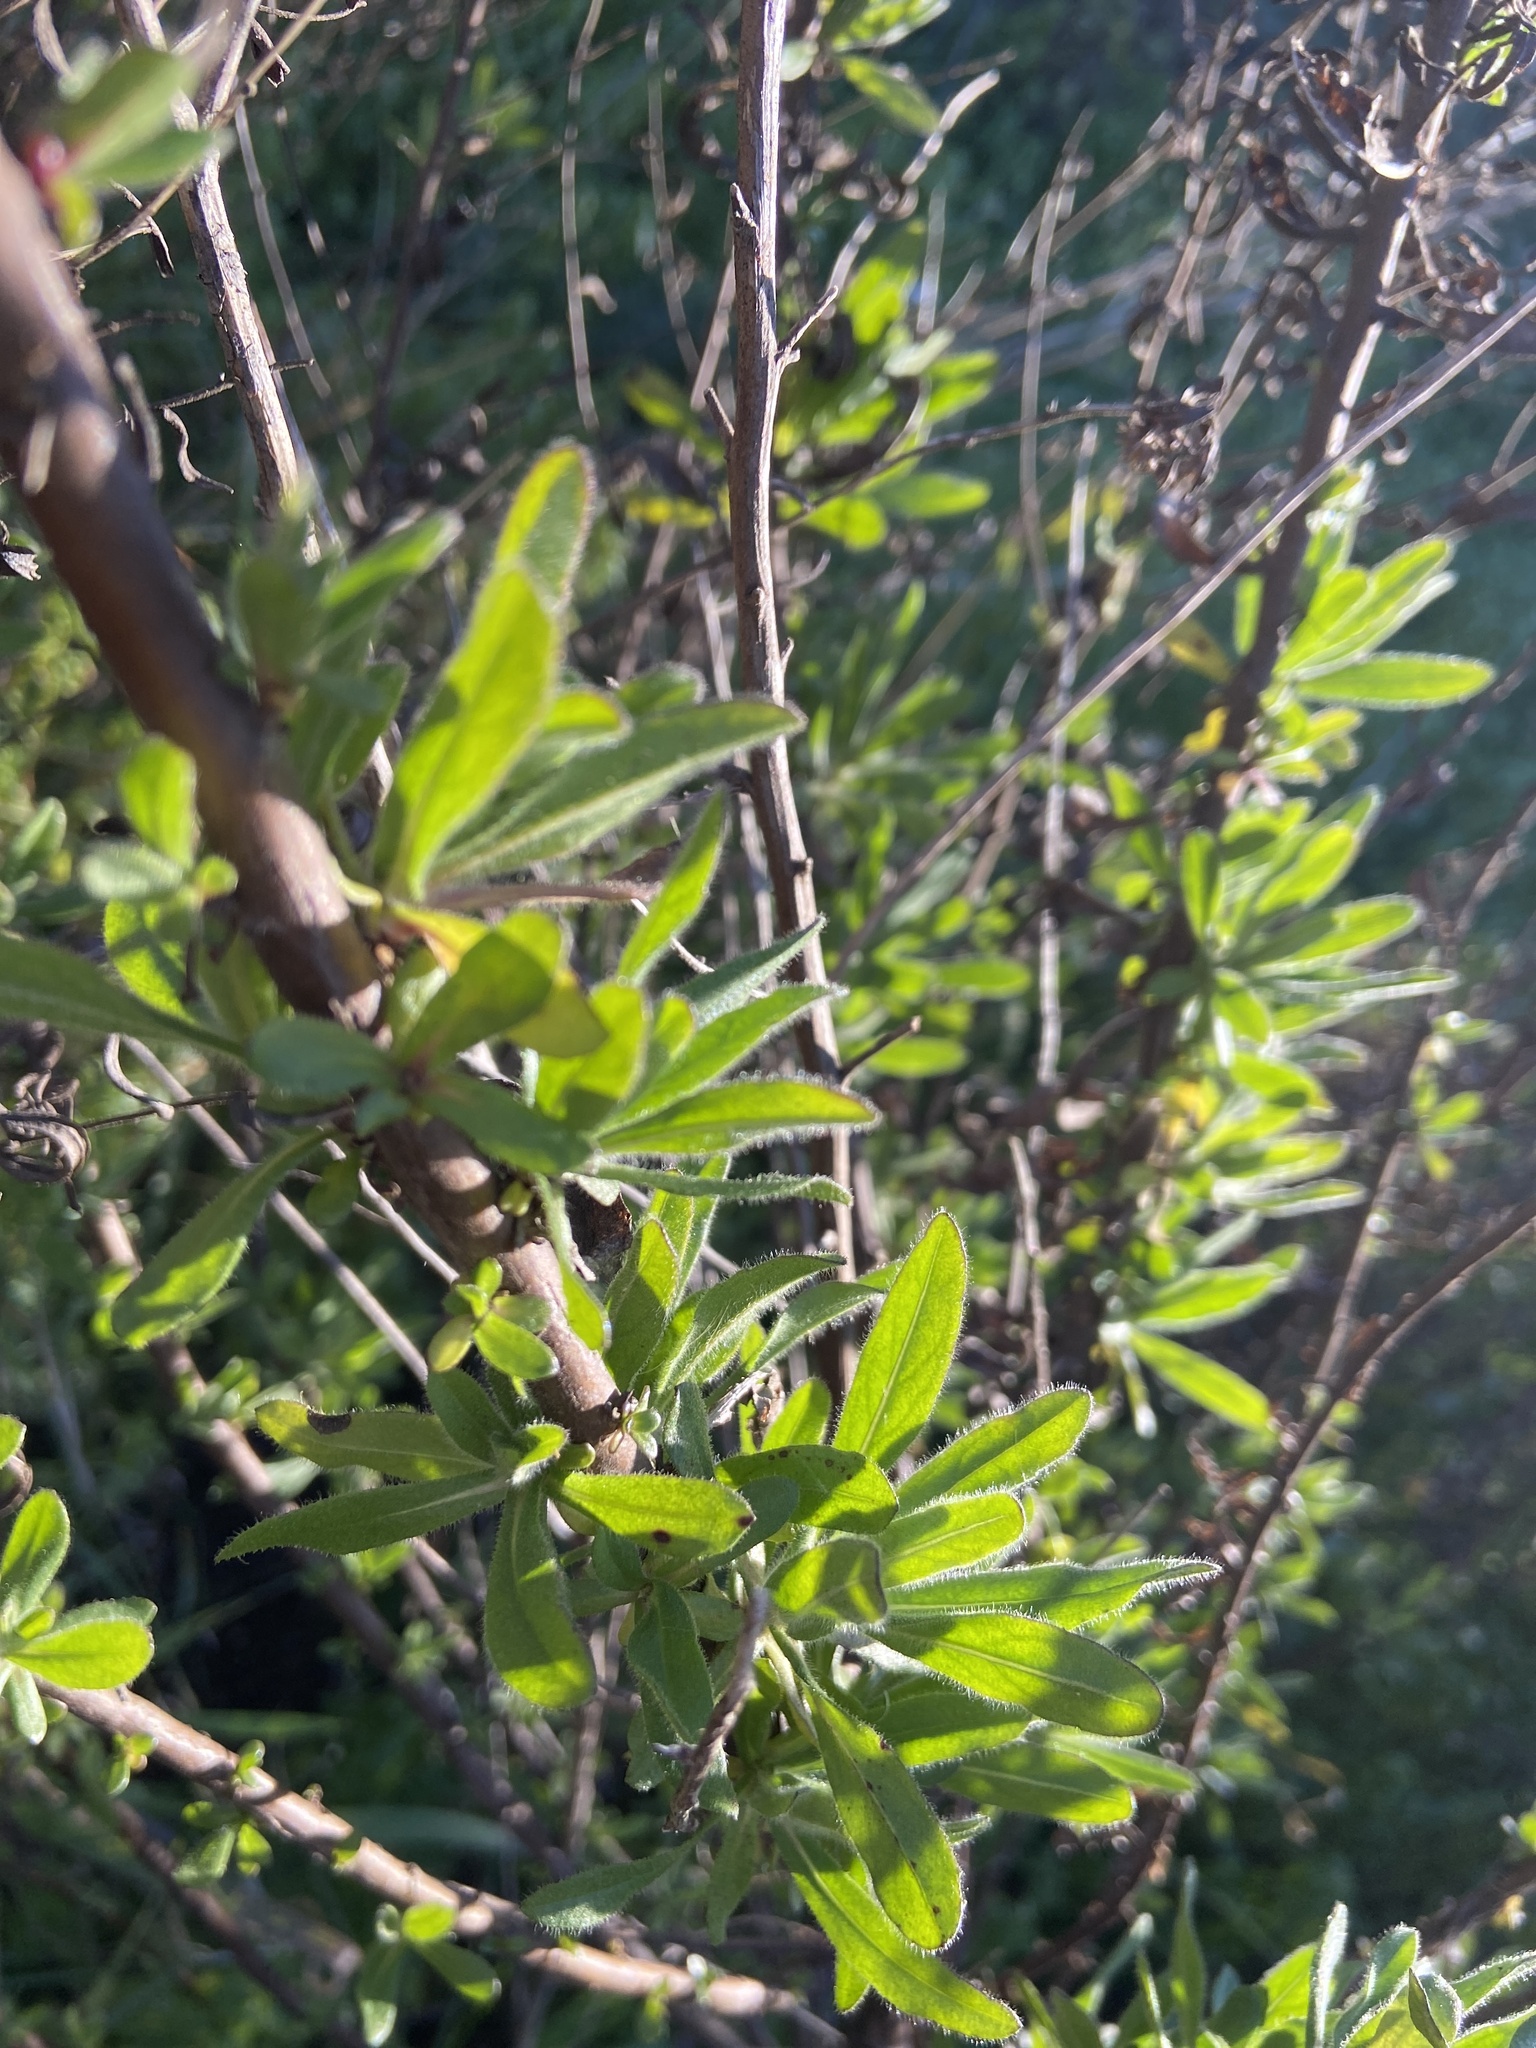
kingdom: Plantae
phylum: Tracheophyta
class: Magnoliopsida
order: Asterales
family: Asteraceae
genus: Dittrichia
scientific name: Dittrichia viscosa
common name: Woody fleabane
